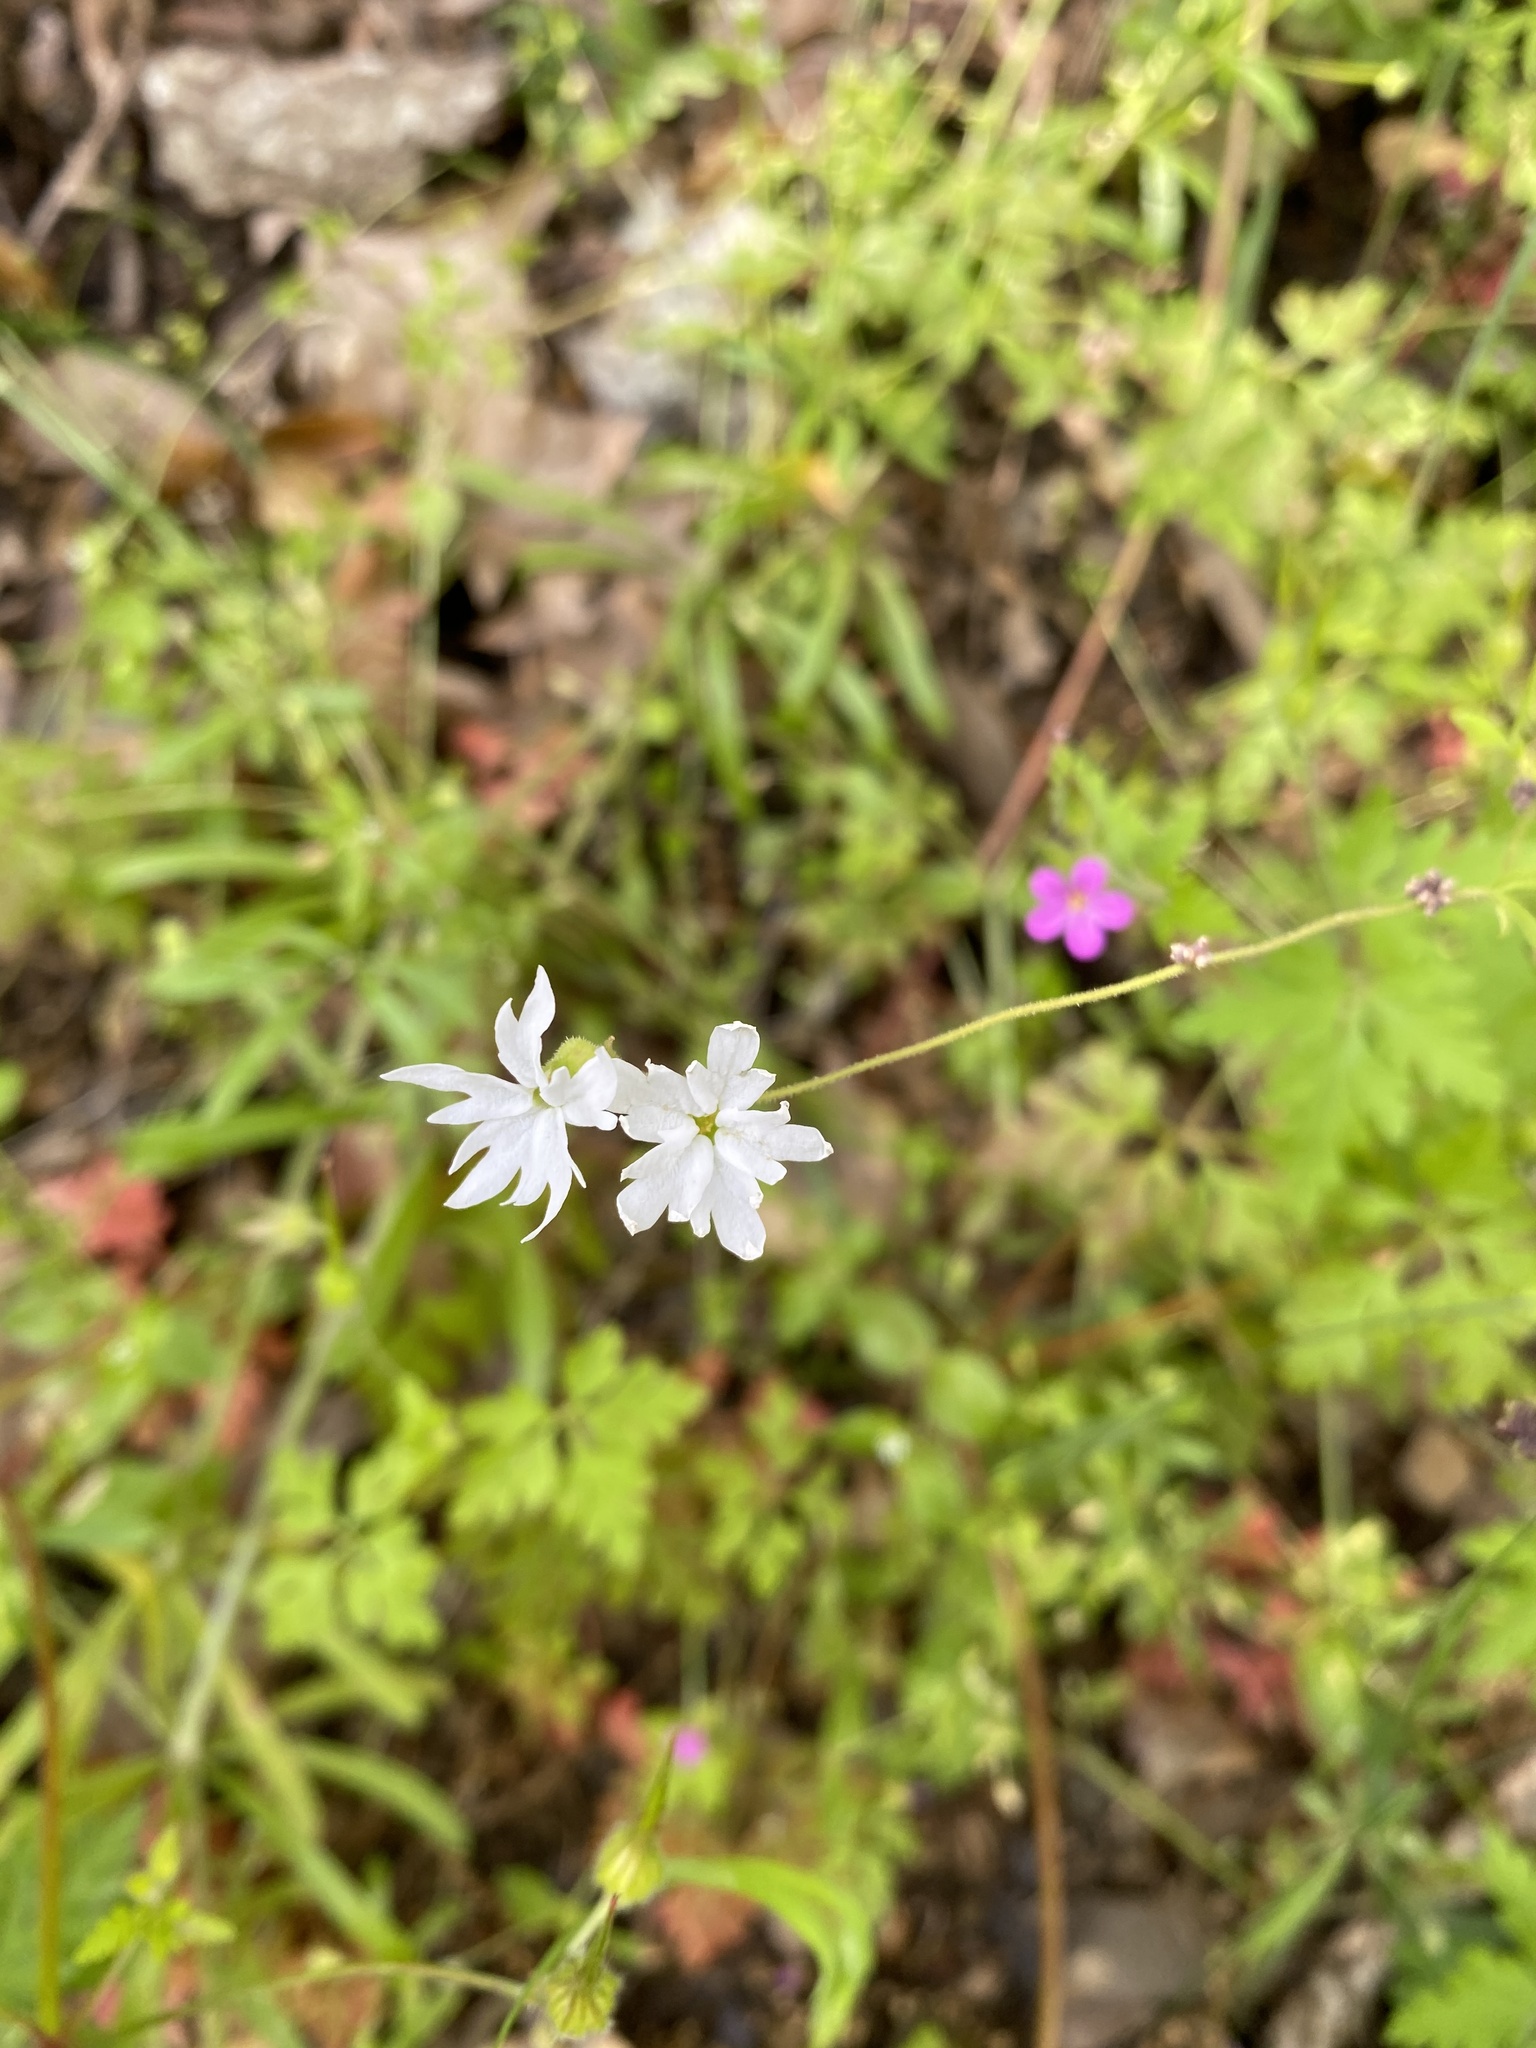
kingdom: Plantae
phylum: Tracheophyta
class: Magnoliopsida
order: Saxifragales
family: Saxifragaceae
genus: Lithophragma
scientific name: Lithophragma heterophyllum
